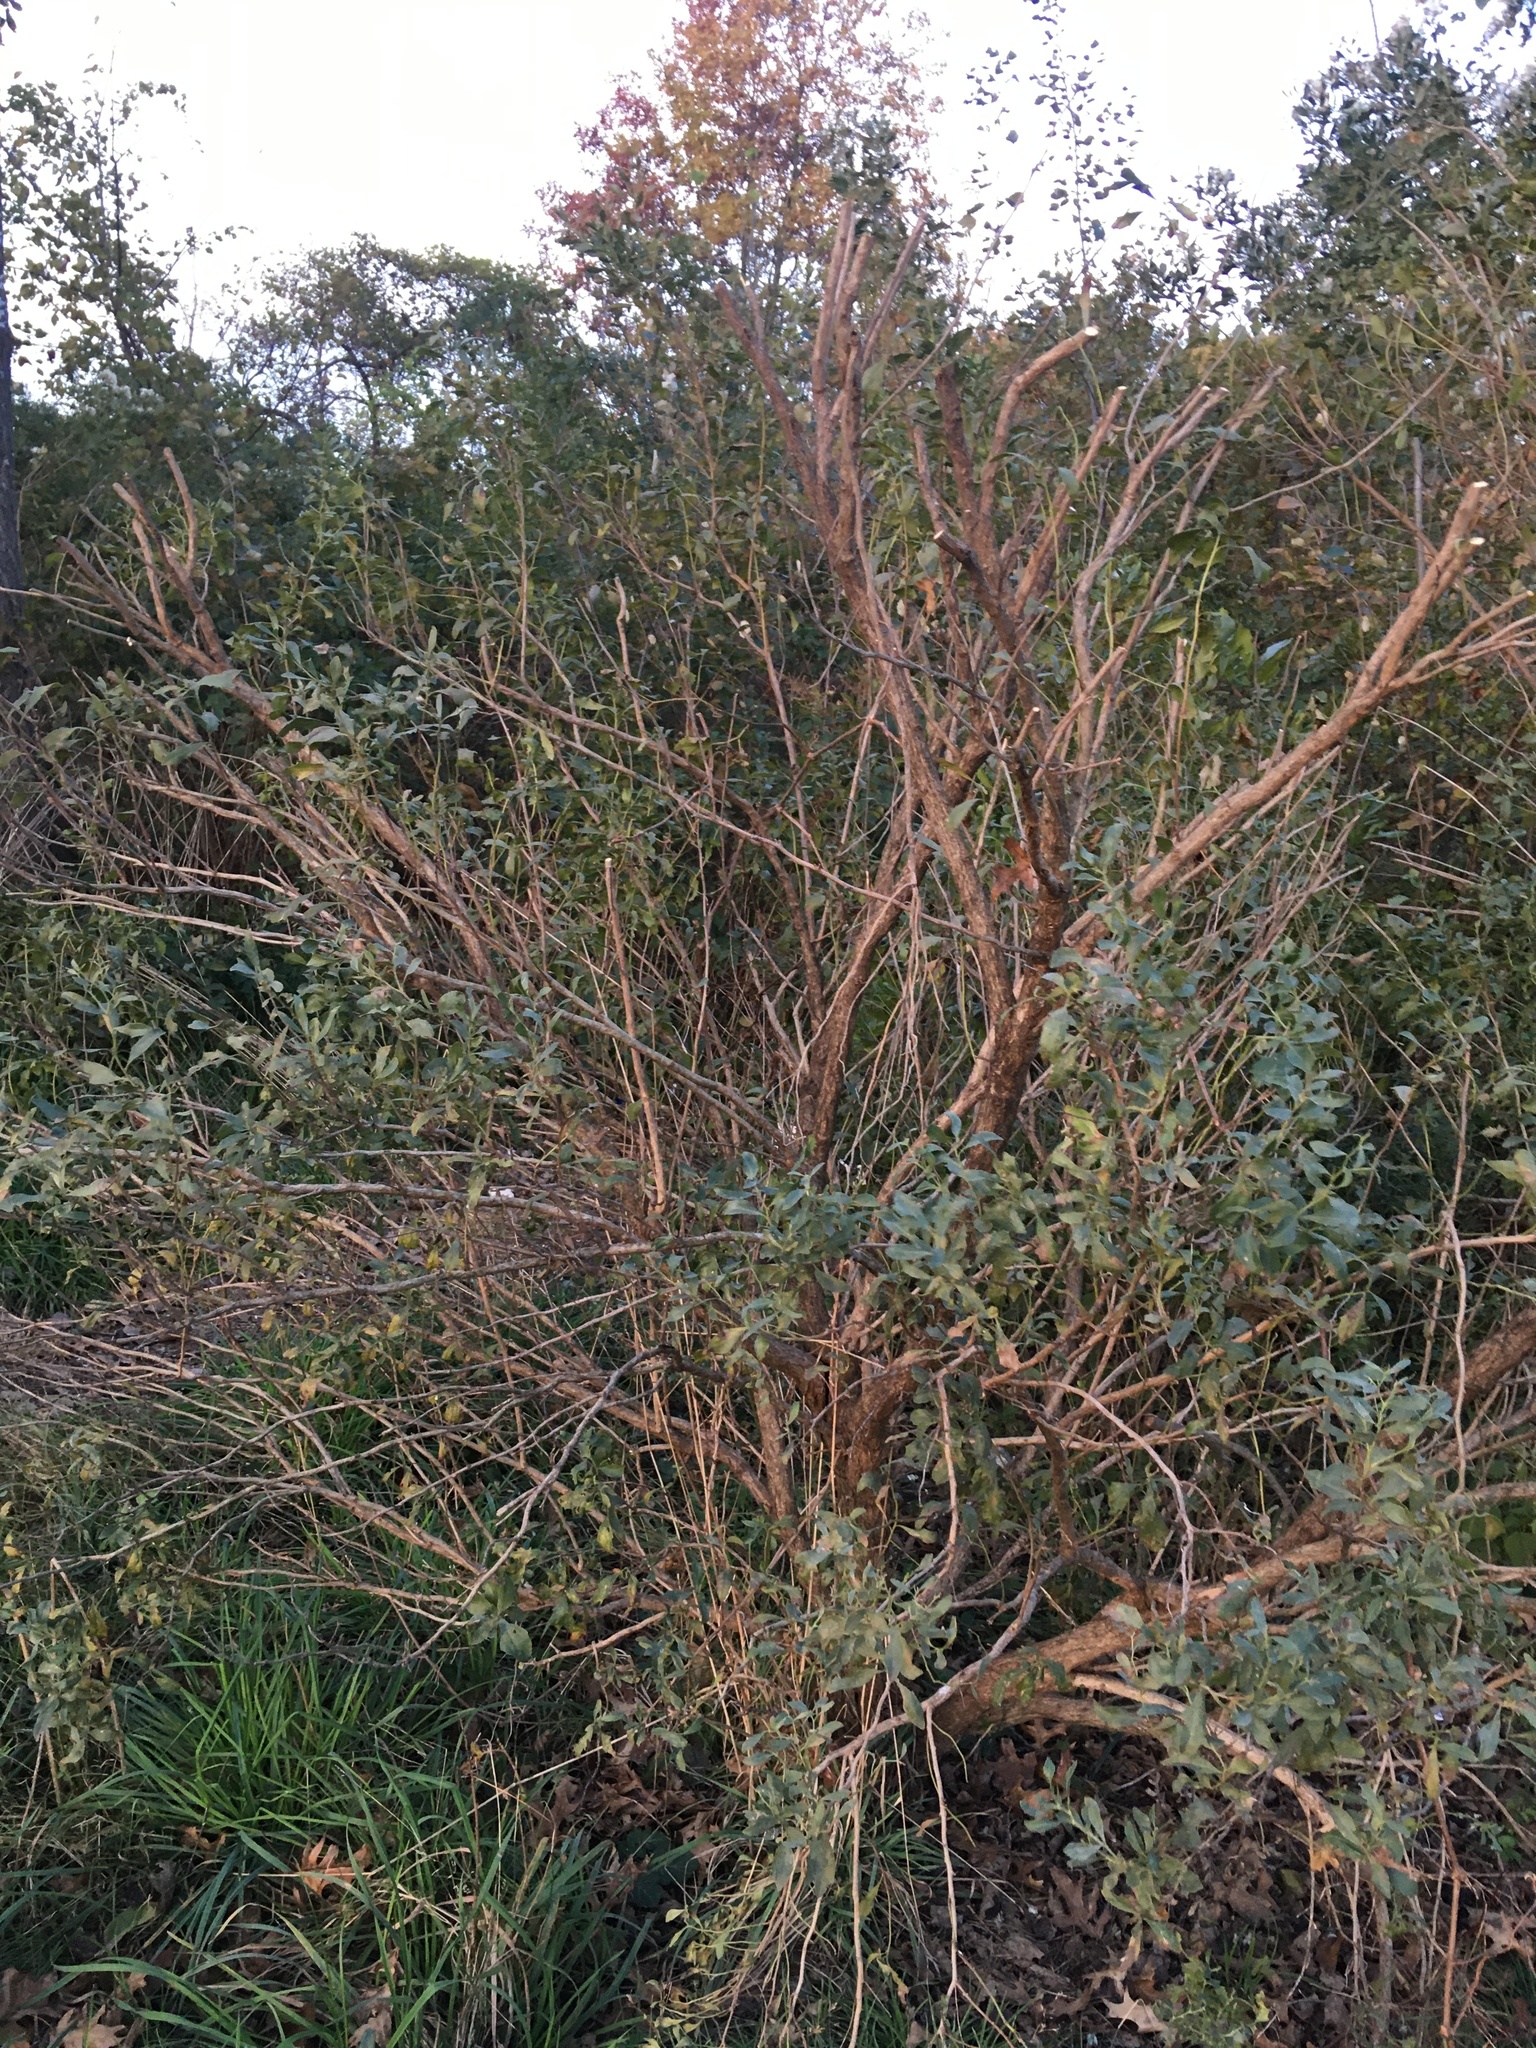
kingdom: Plantae
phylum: Tracheophyta
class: Magnoliopsida
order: Asterales
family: Asteraceae
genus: Baccharis
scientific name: Baccharis halimifolia
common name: Eastern baccharis
